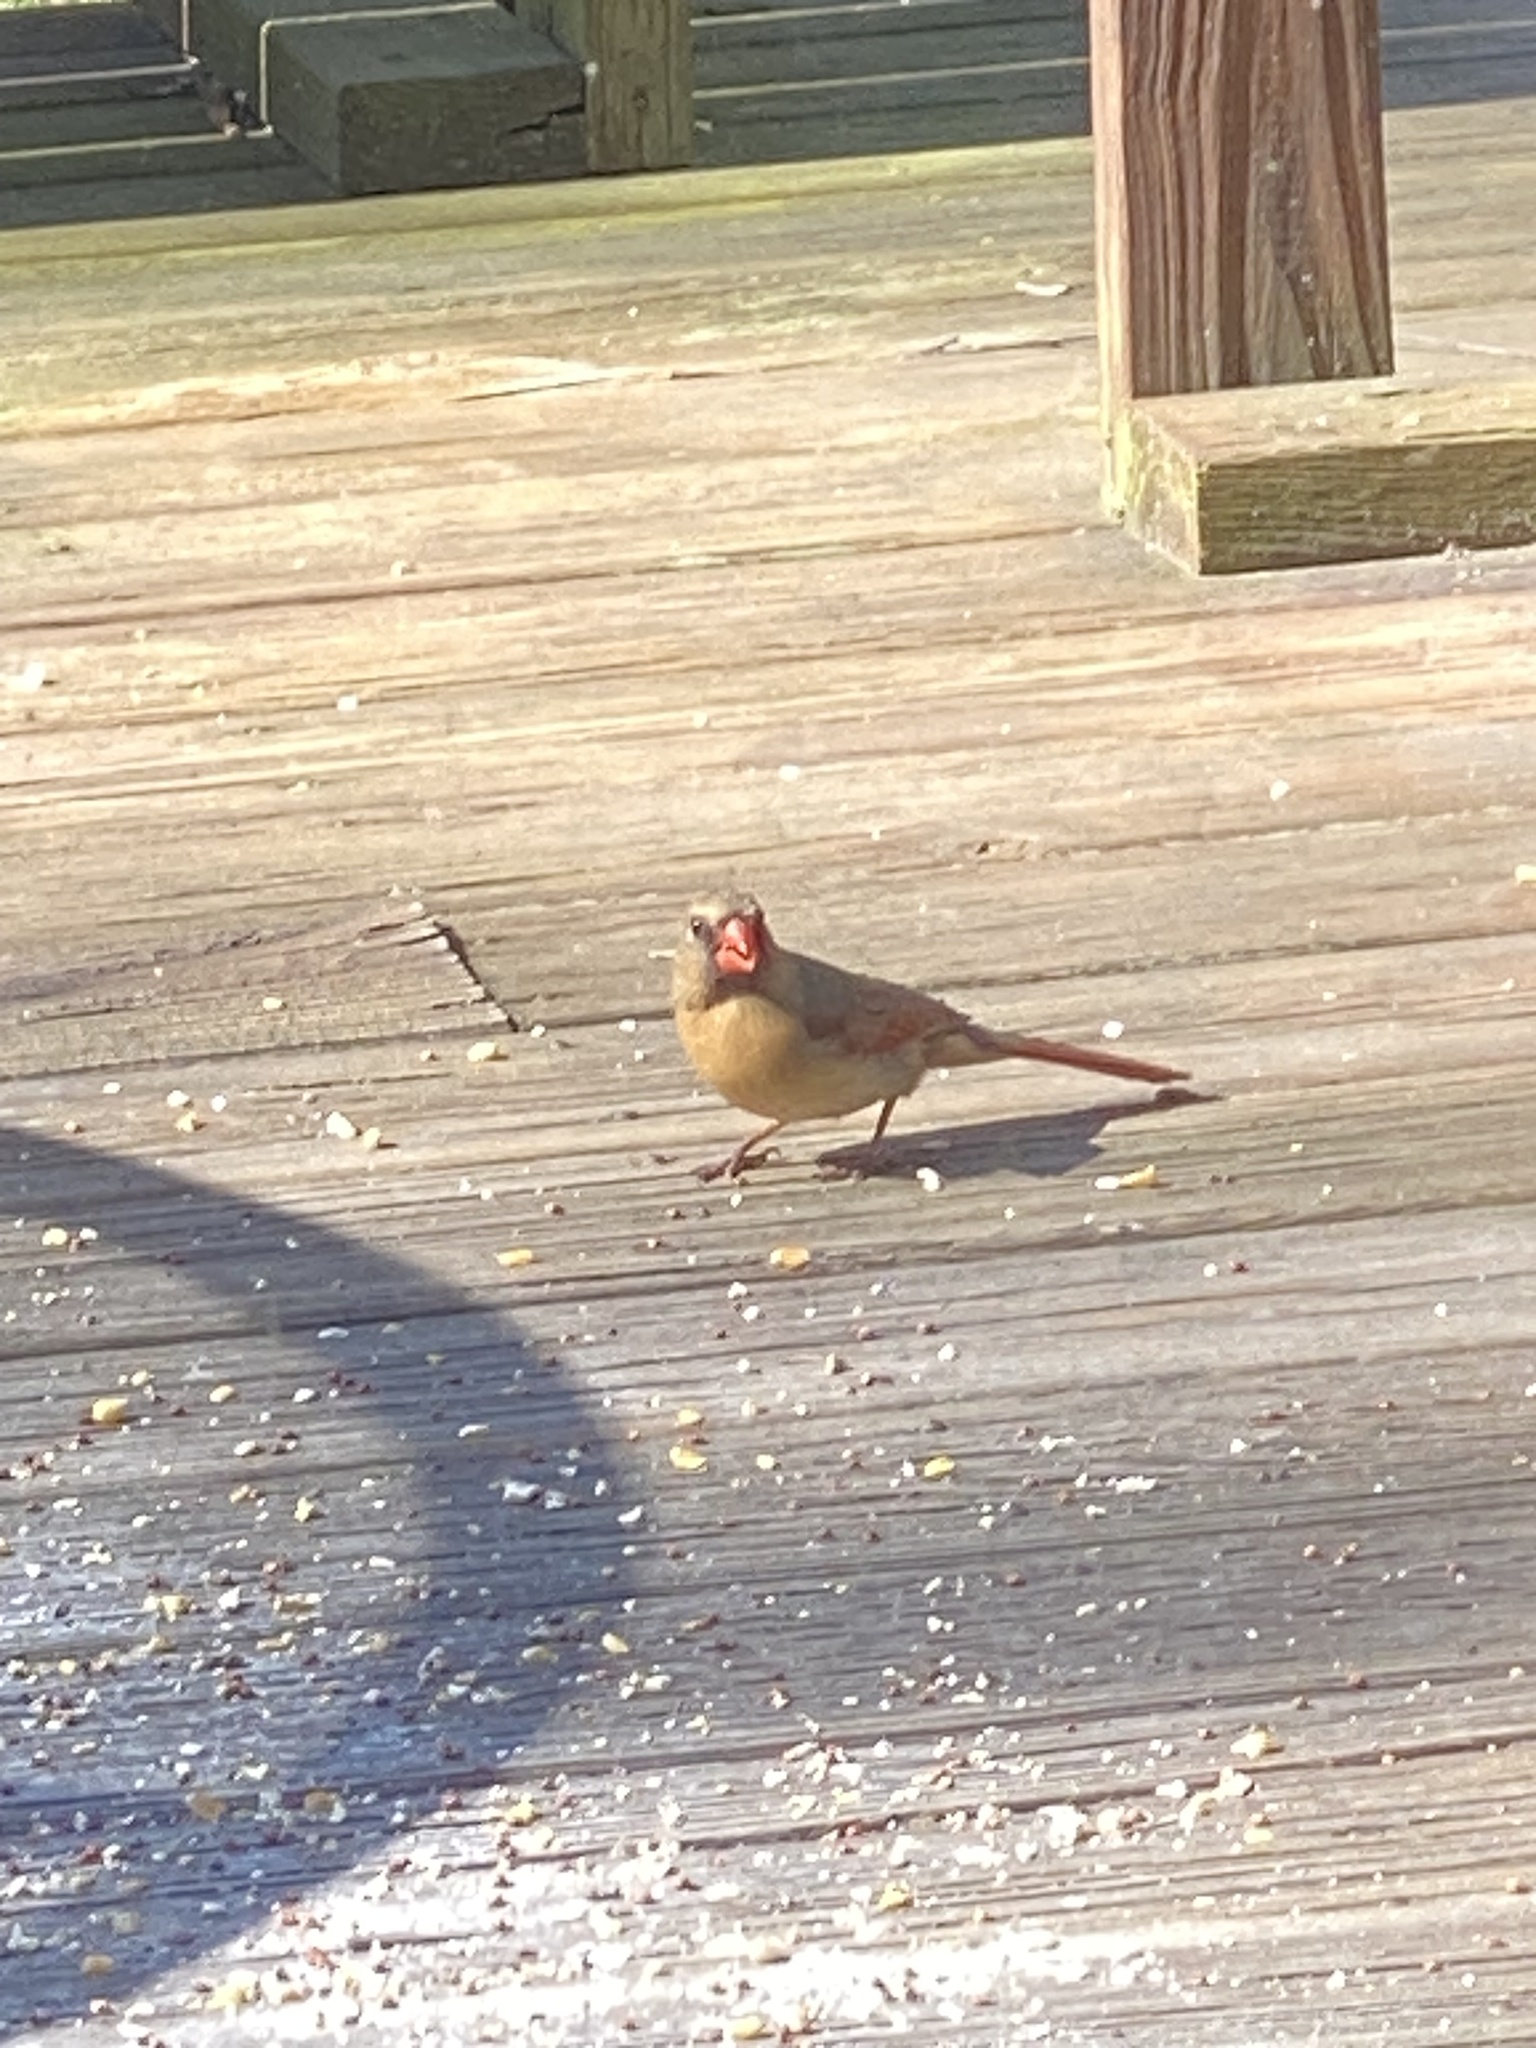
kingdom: Animalia
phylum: Chordata
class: Aves
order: Passeriformes
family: Cardinalidae
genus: Cardinalis
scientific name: Cardinalis cardinalis
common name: Northern cardinal
